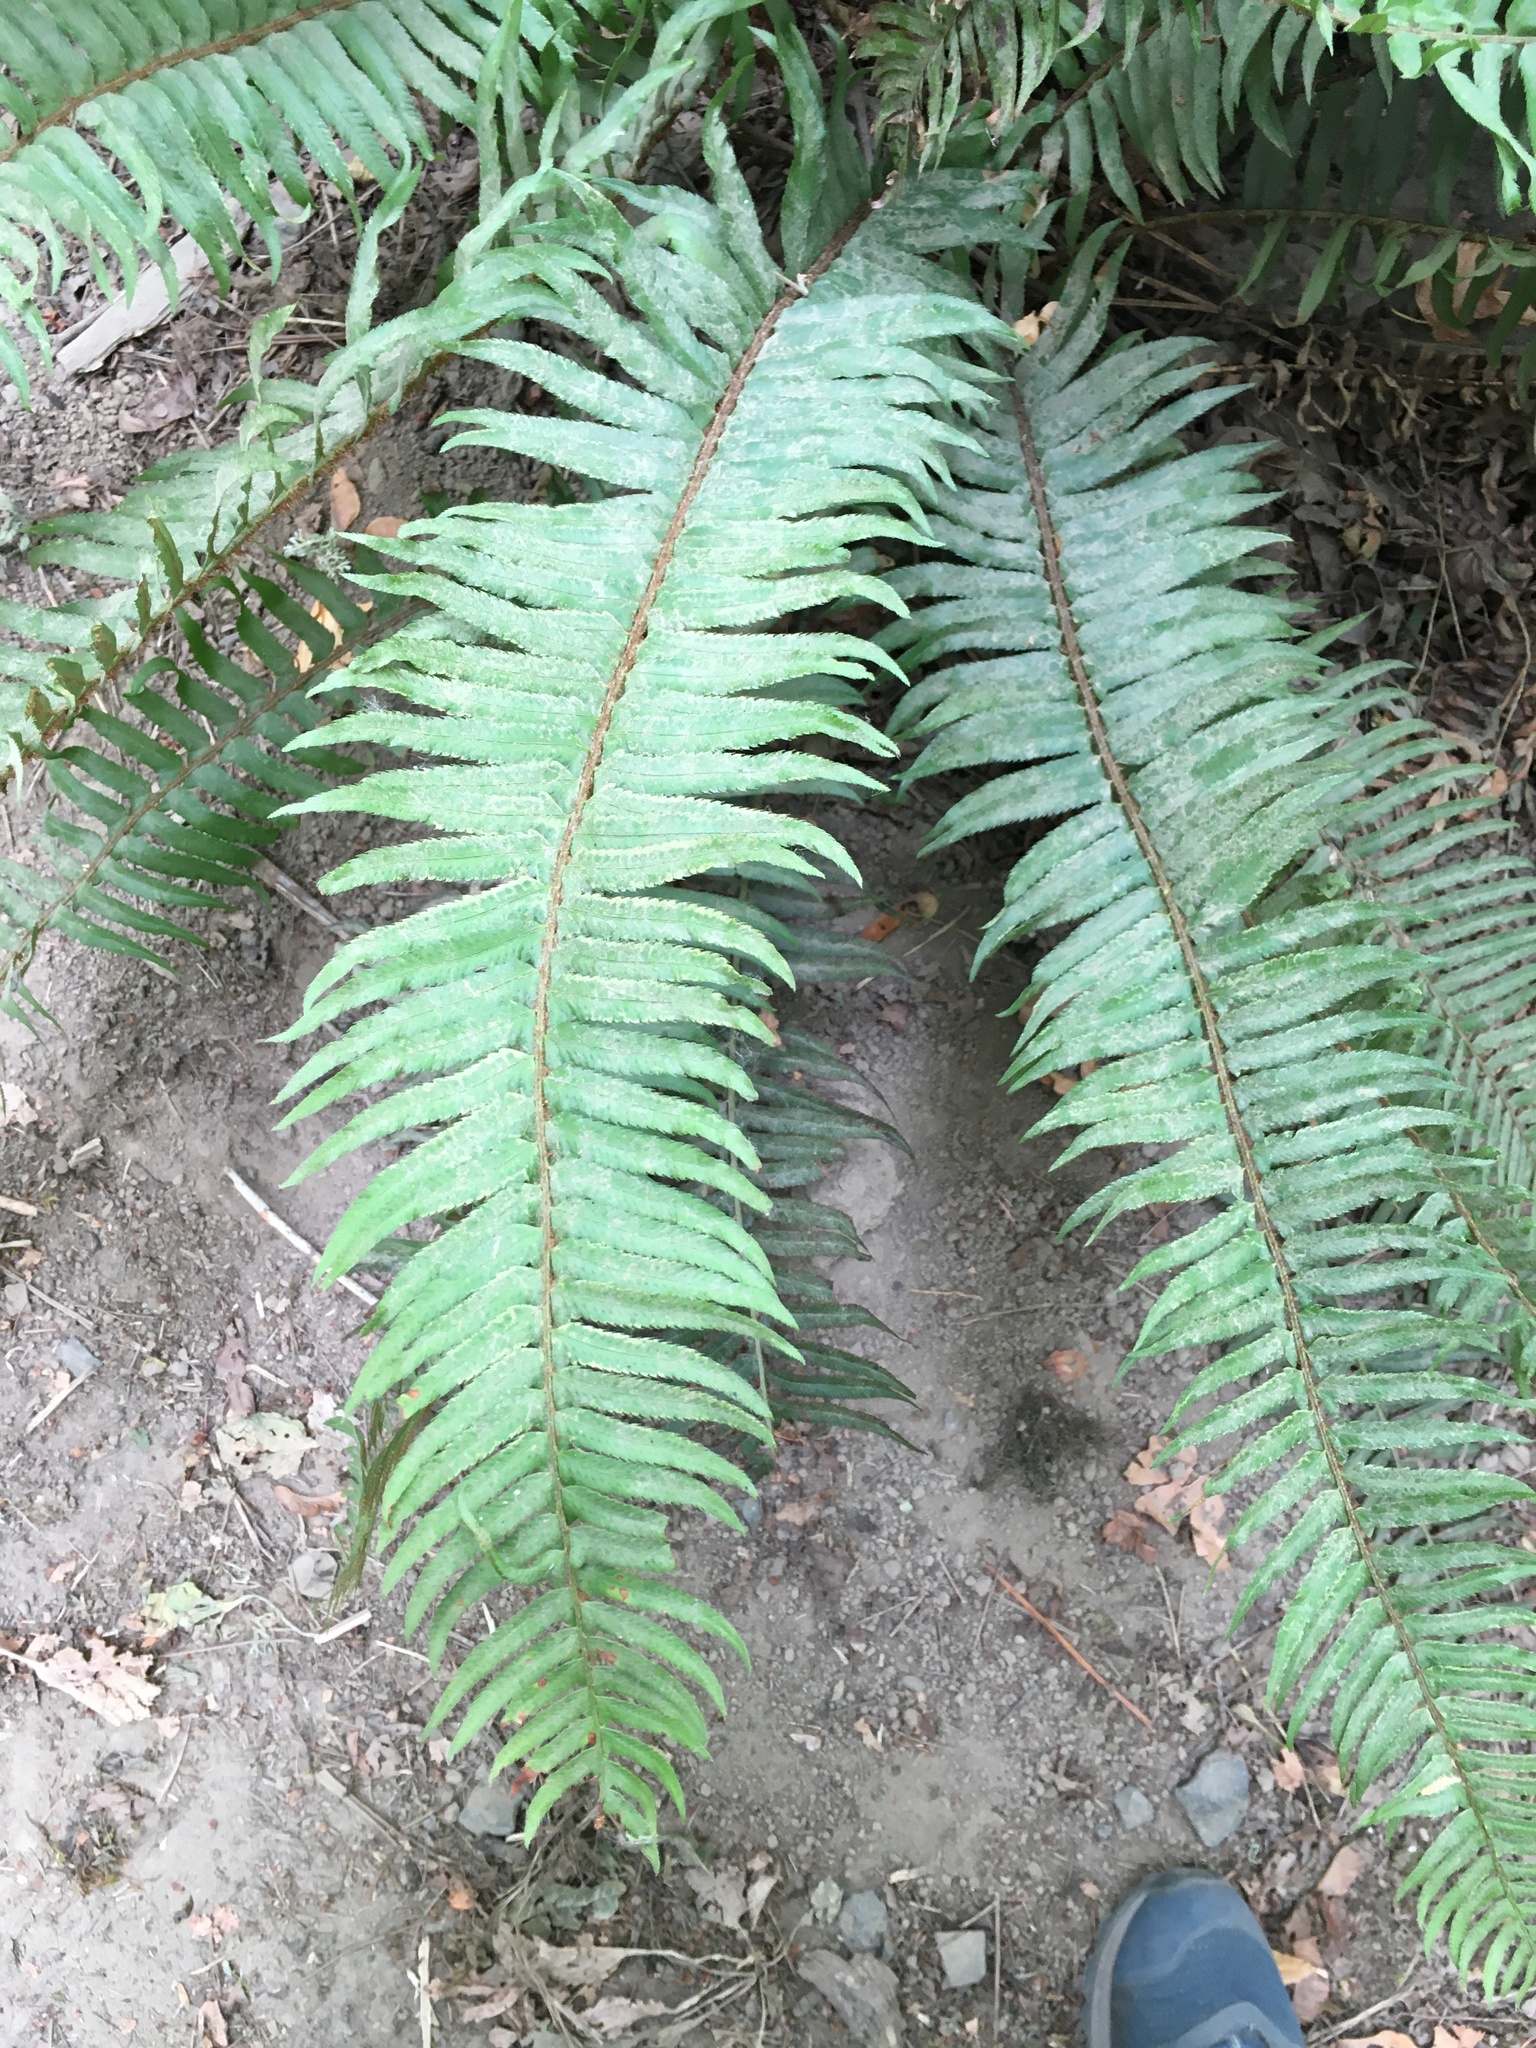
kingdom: Plantae
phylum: Tracheophyta
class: Polypodiopsida
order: Polypodiales
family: Dryopteridaceae
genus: Polystichum
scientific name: Polystichum munitum
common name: Western sword-fern
